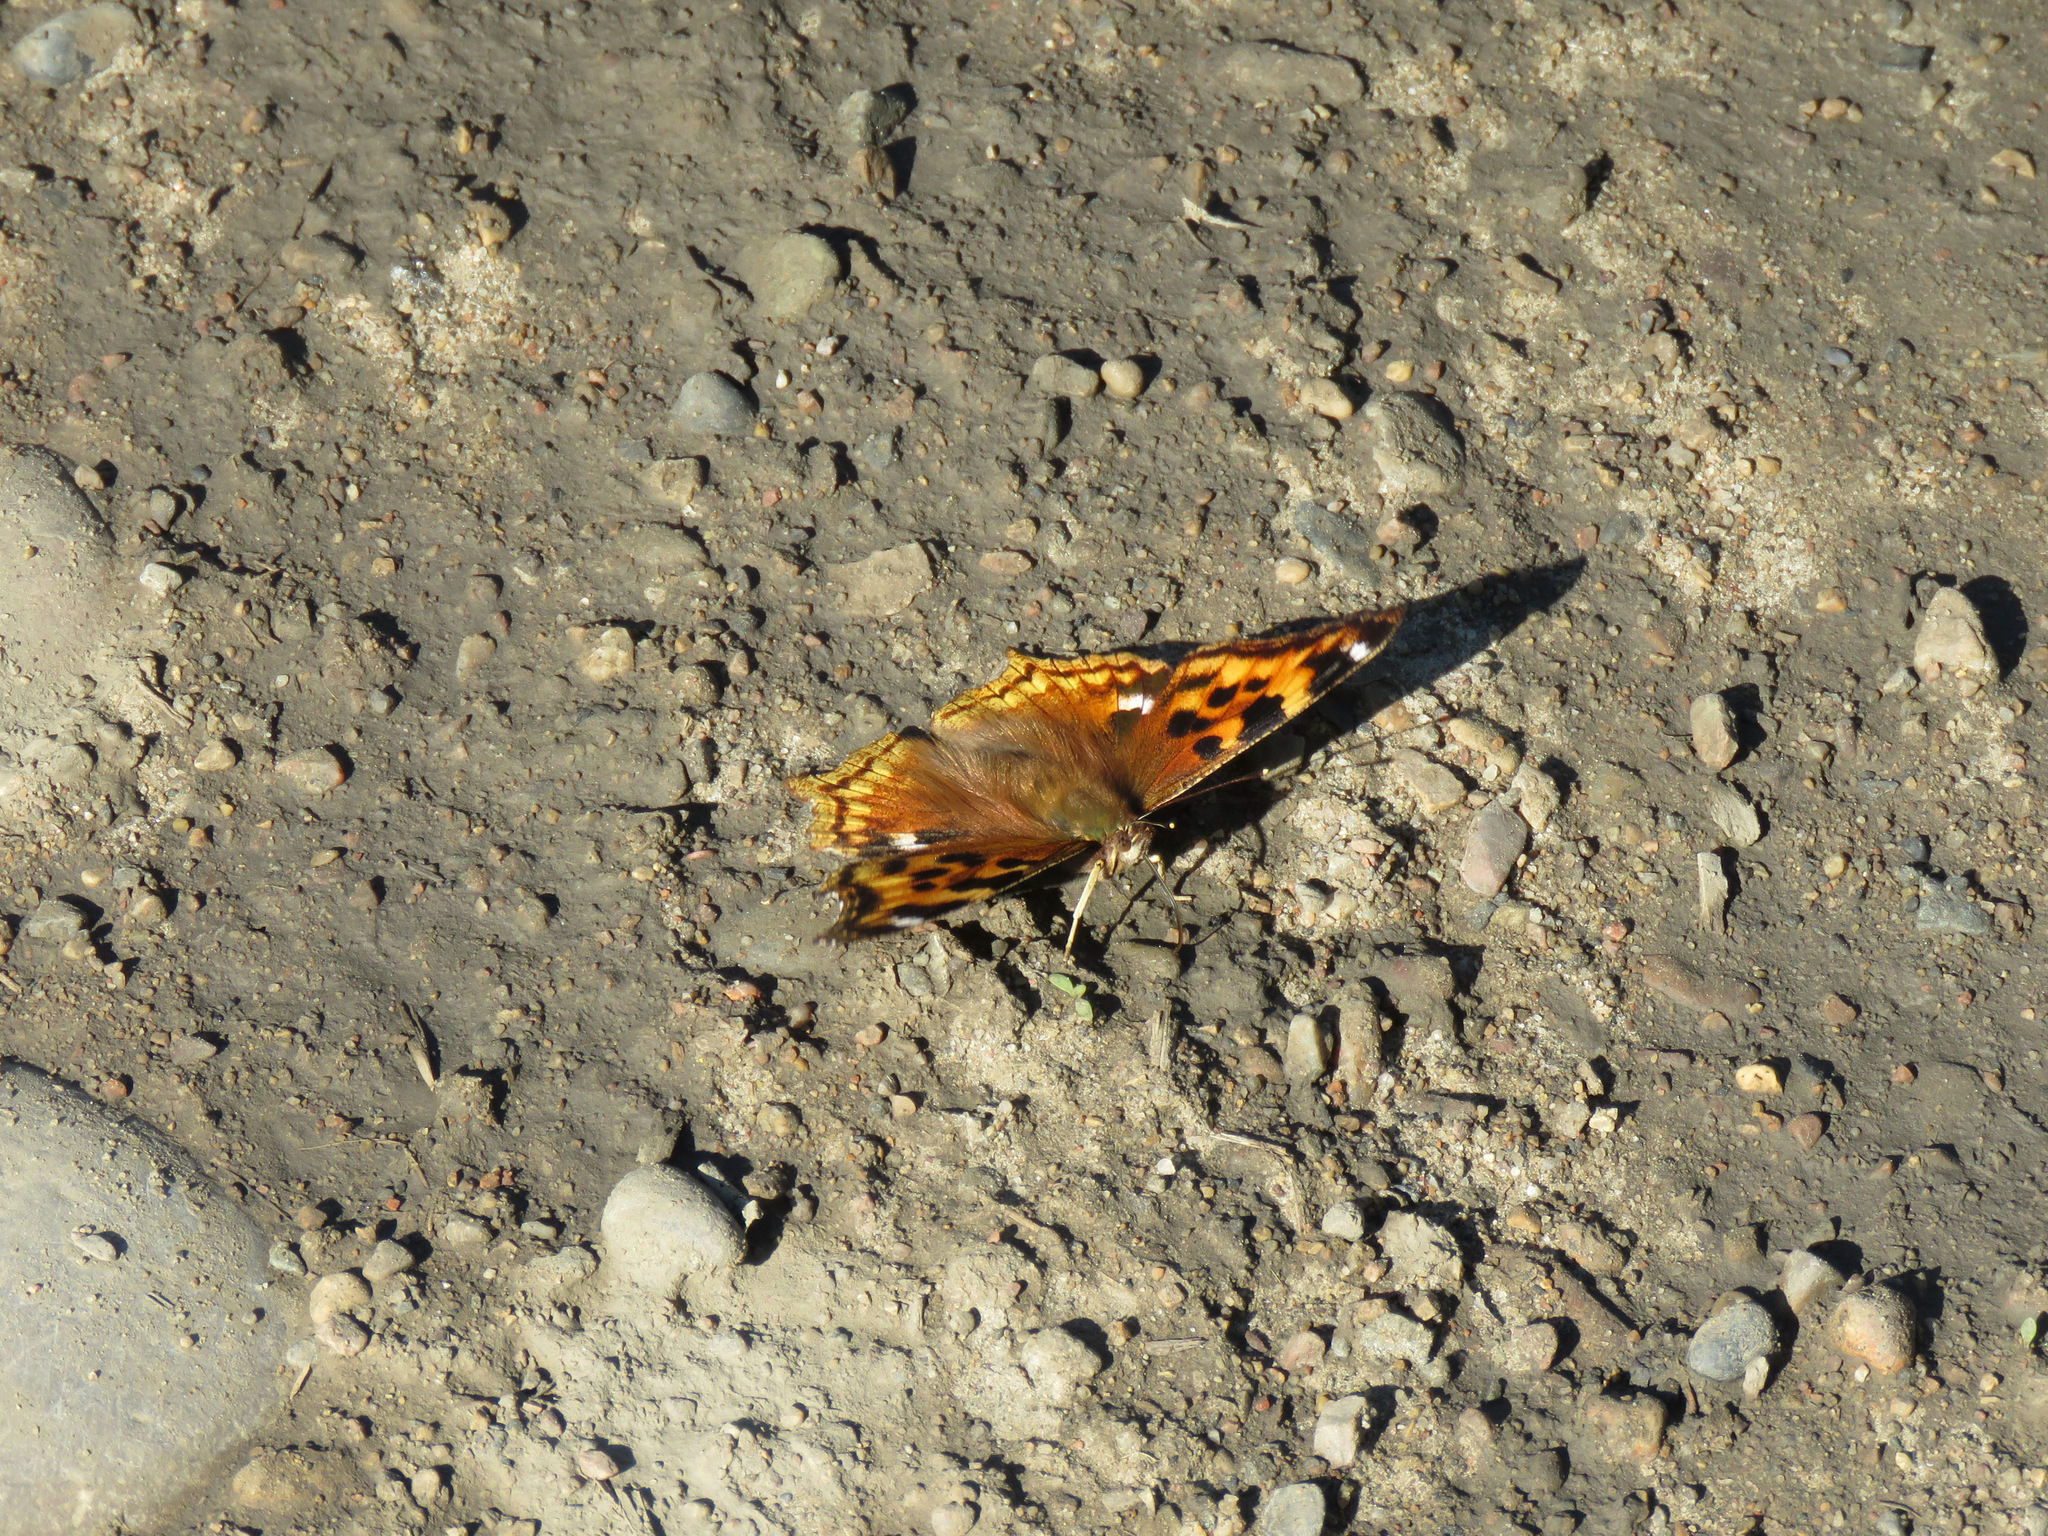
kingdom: Animalia
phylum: Arthropoda
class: Insecta
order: Lepidoptera
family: Nymphalidae
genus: Polygonia
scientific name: Polygonia vaualbum
